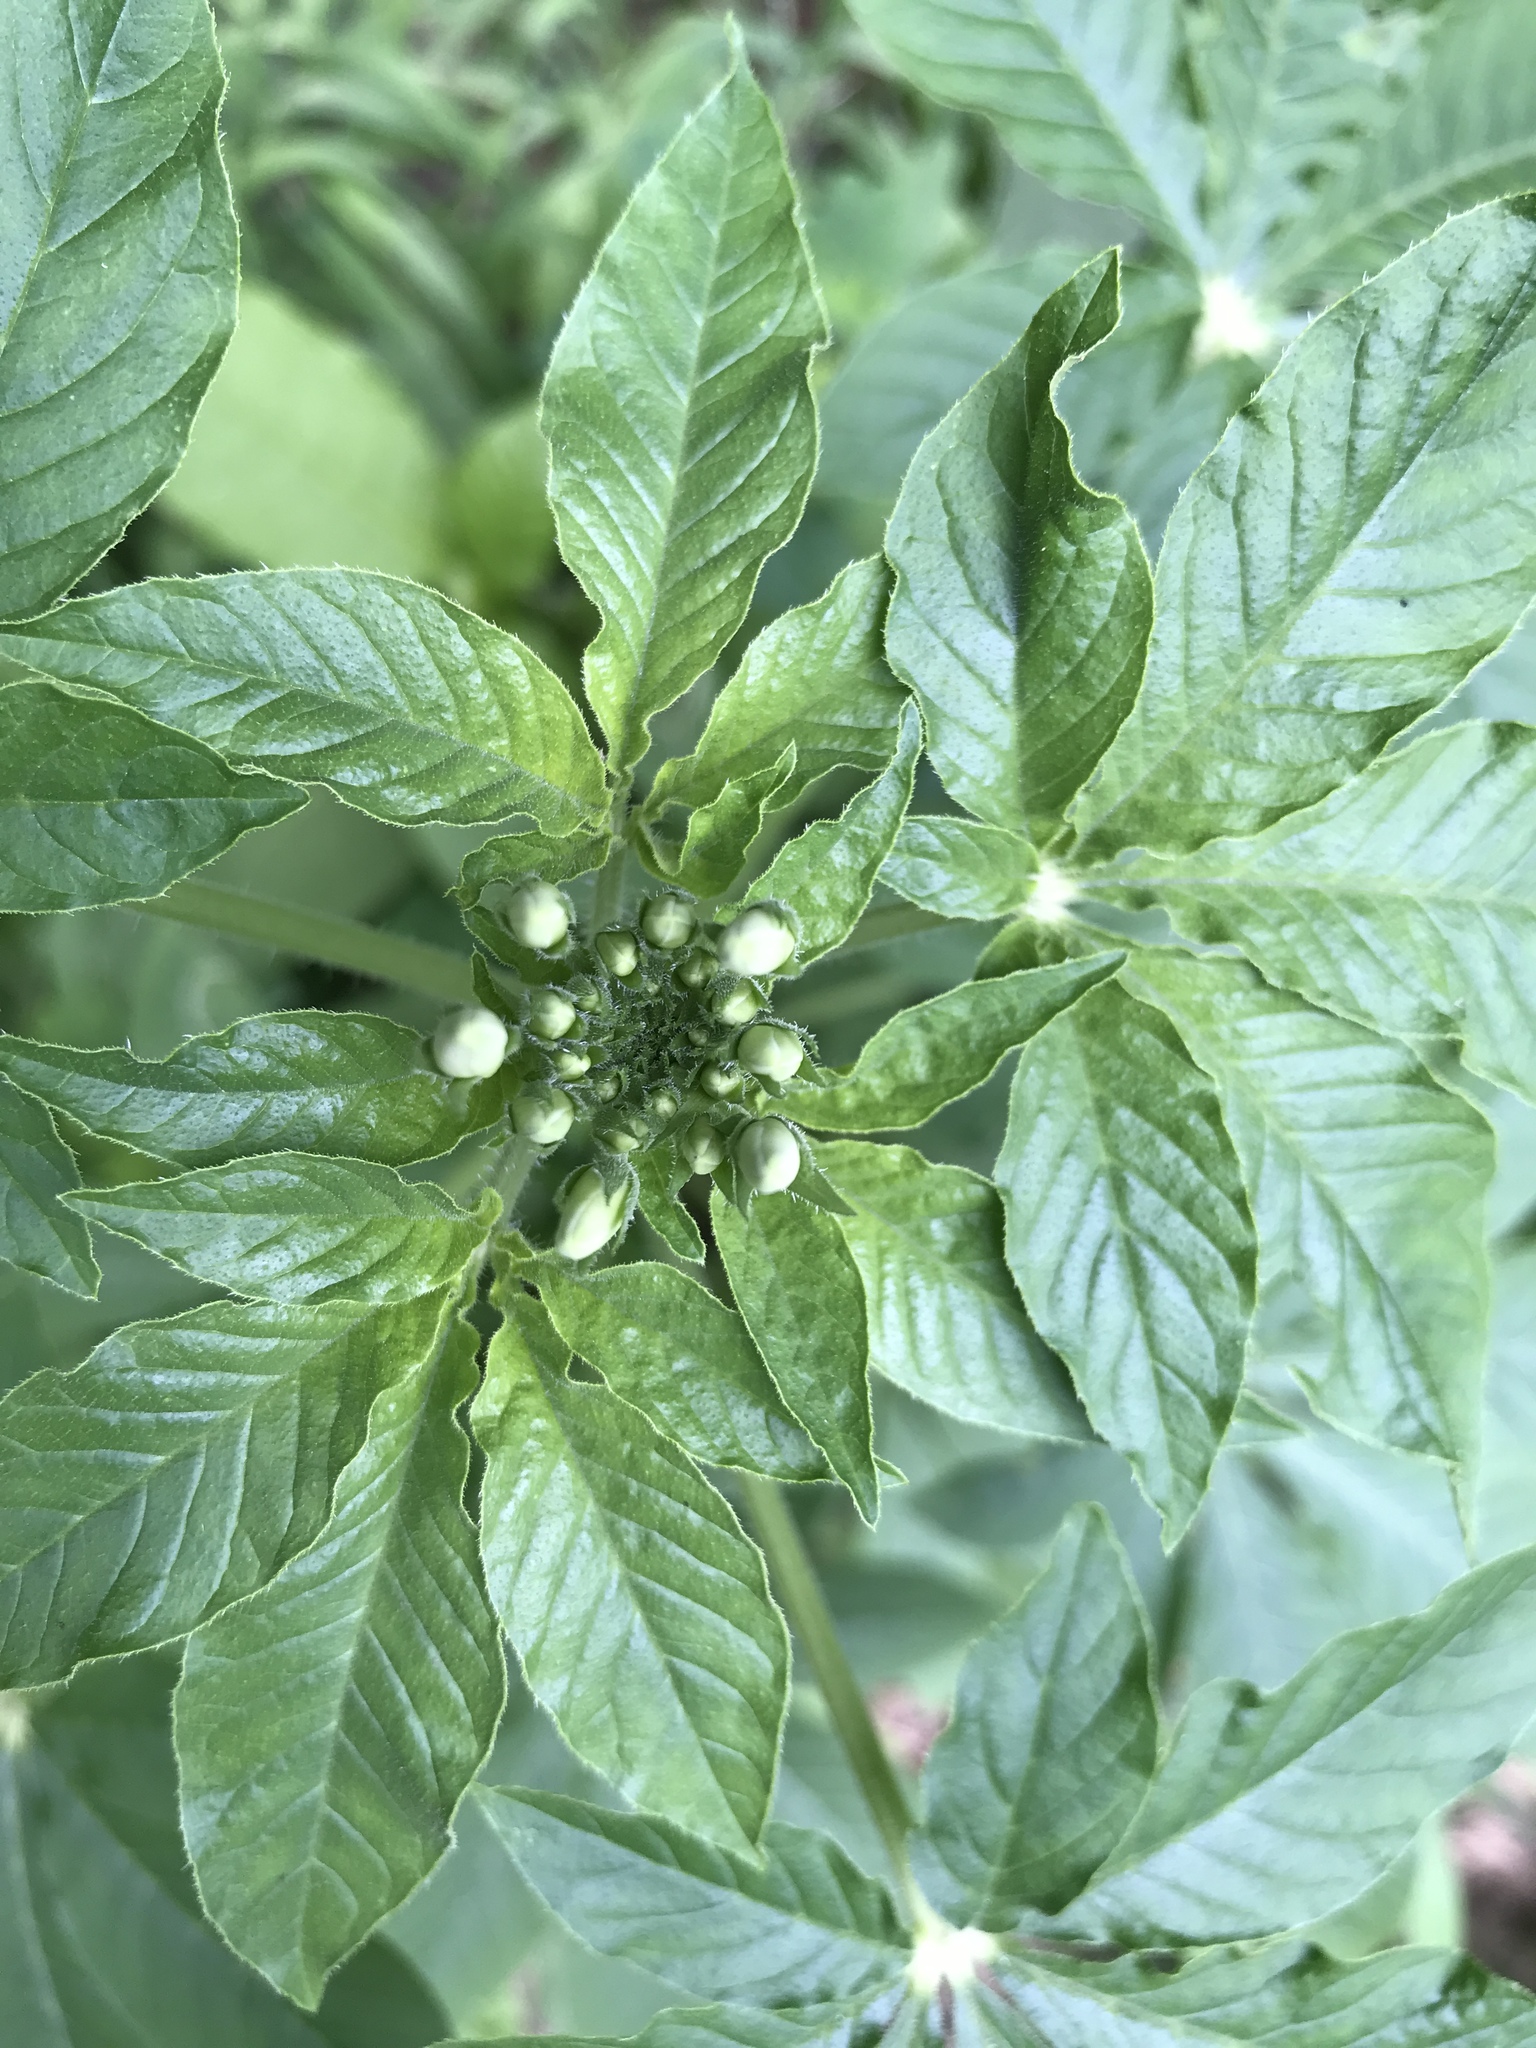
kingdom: Plantae
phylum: Tracheophyta
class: Magnoliopsida
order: Brassicales
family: Cleomaceae
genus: Tarenaya
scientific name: Tarenaya houtteana
